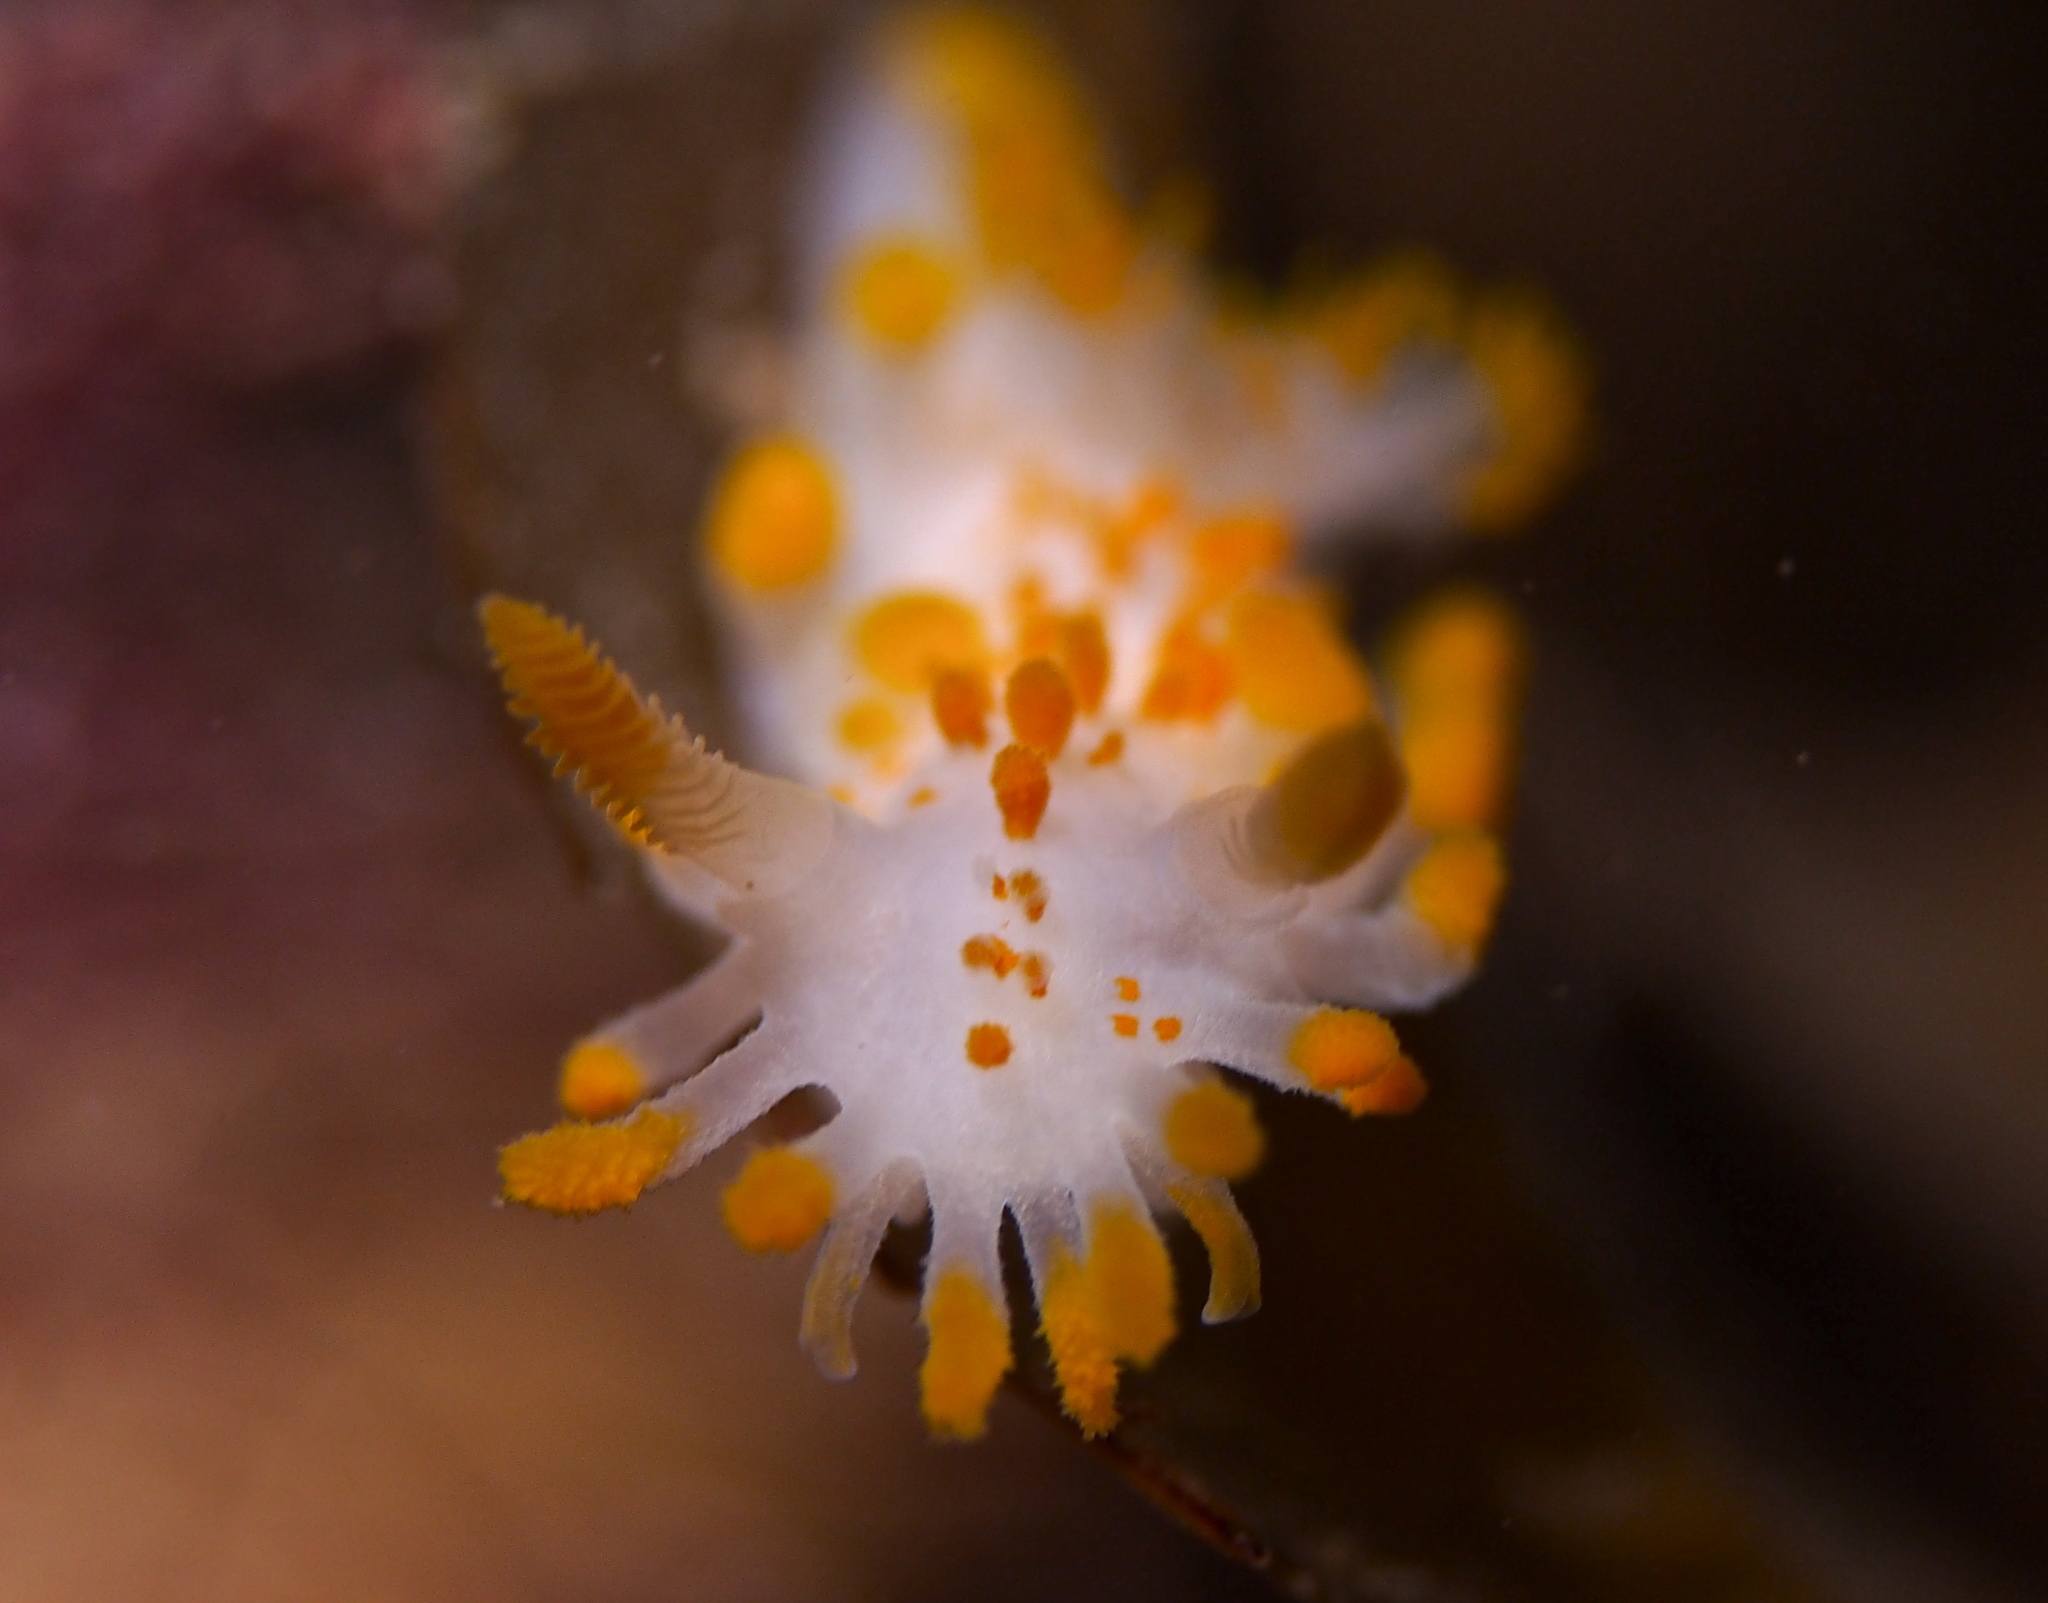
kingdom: Animalia
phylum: Mollusca
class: Gastropoda
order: Nudibranchia
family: Polyceridae
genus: Limacia
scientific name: Limacia clavigera
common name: Orange-clubbed sea slug
